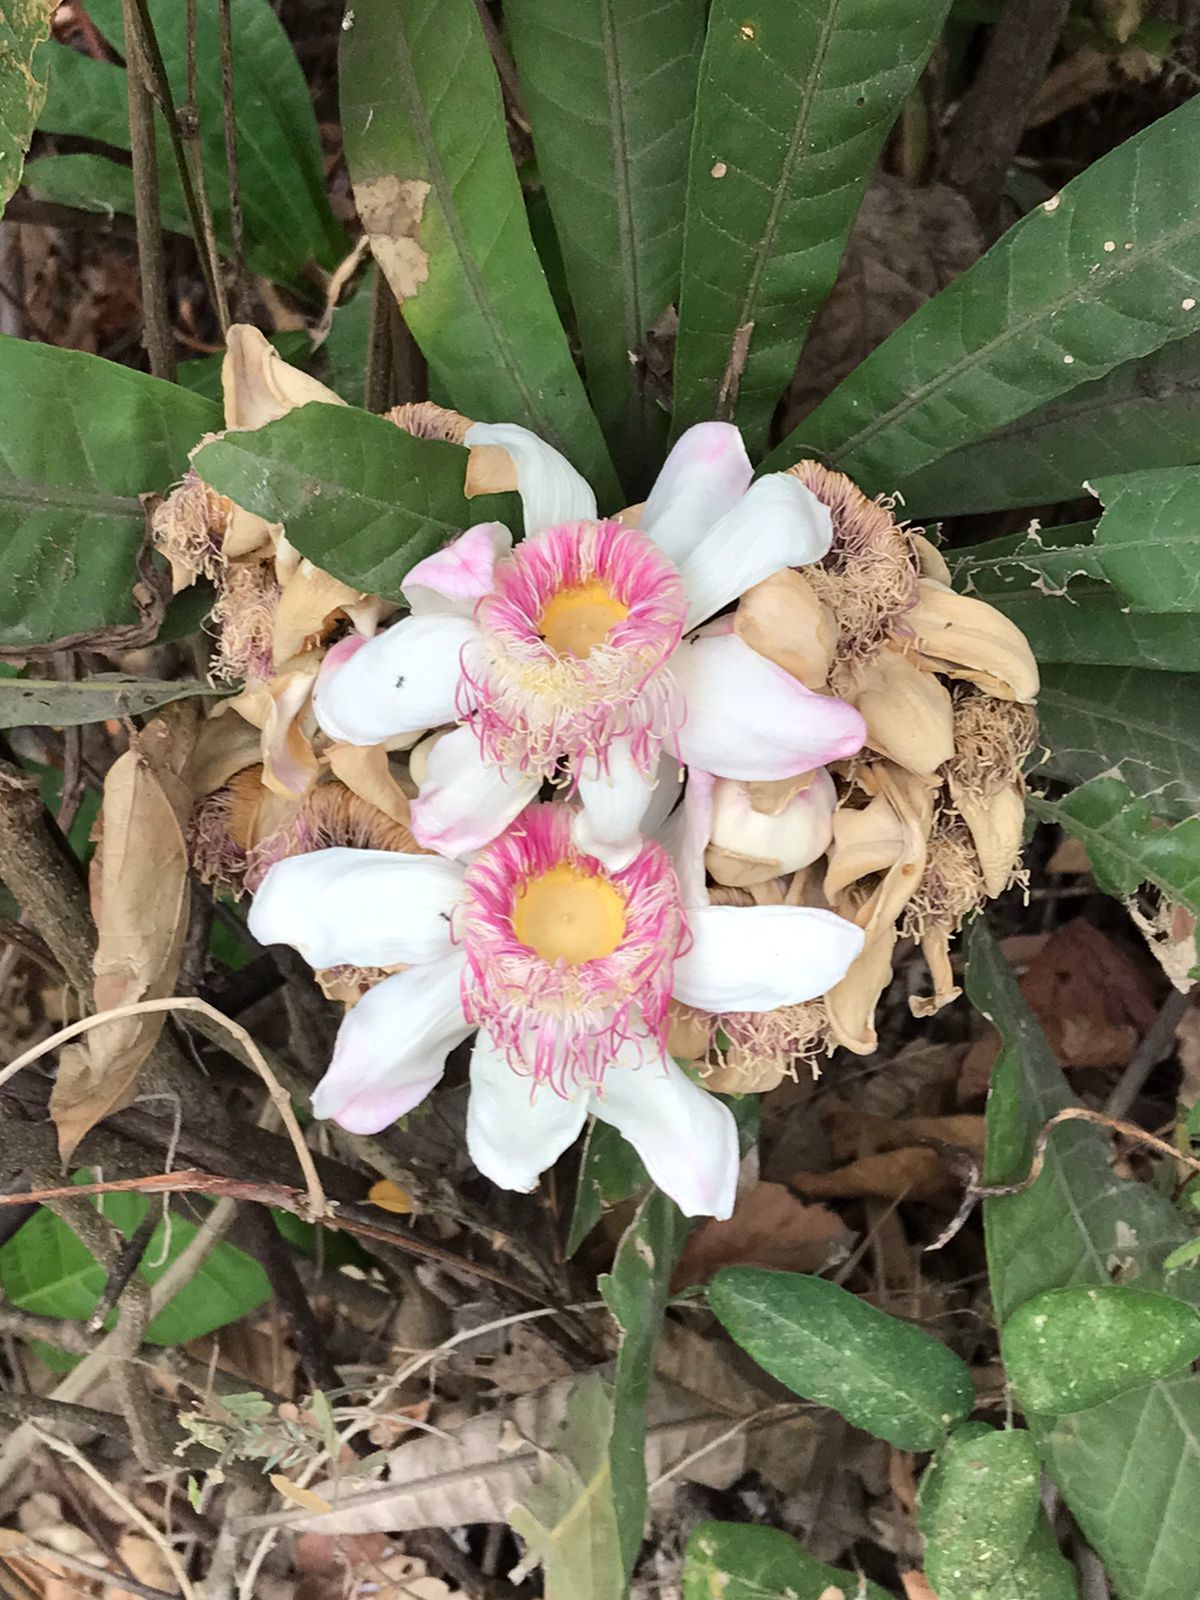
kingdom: Plantae
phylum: Tracheophyta
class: Magnoliopsida
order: Ericales
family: Lecythidaceae
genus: Gustavia
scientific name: Gustavia angustifolia
